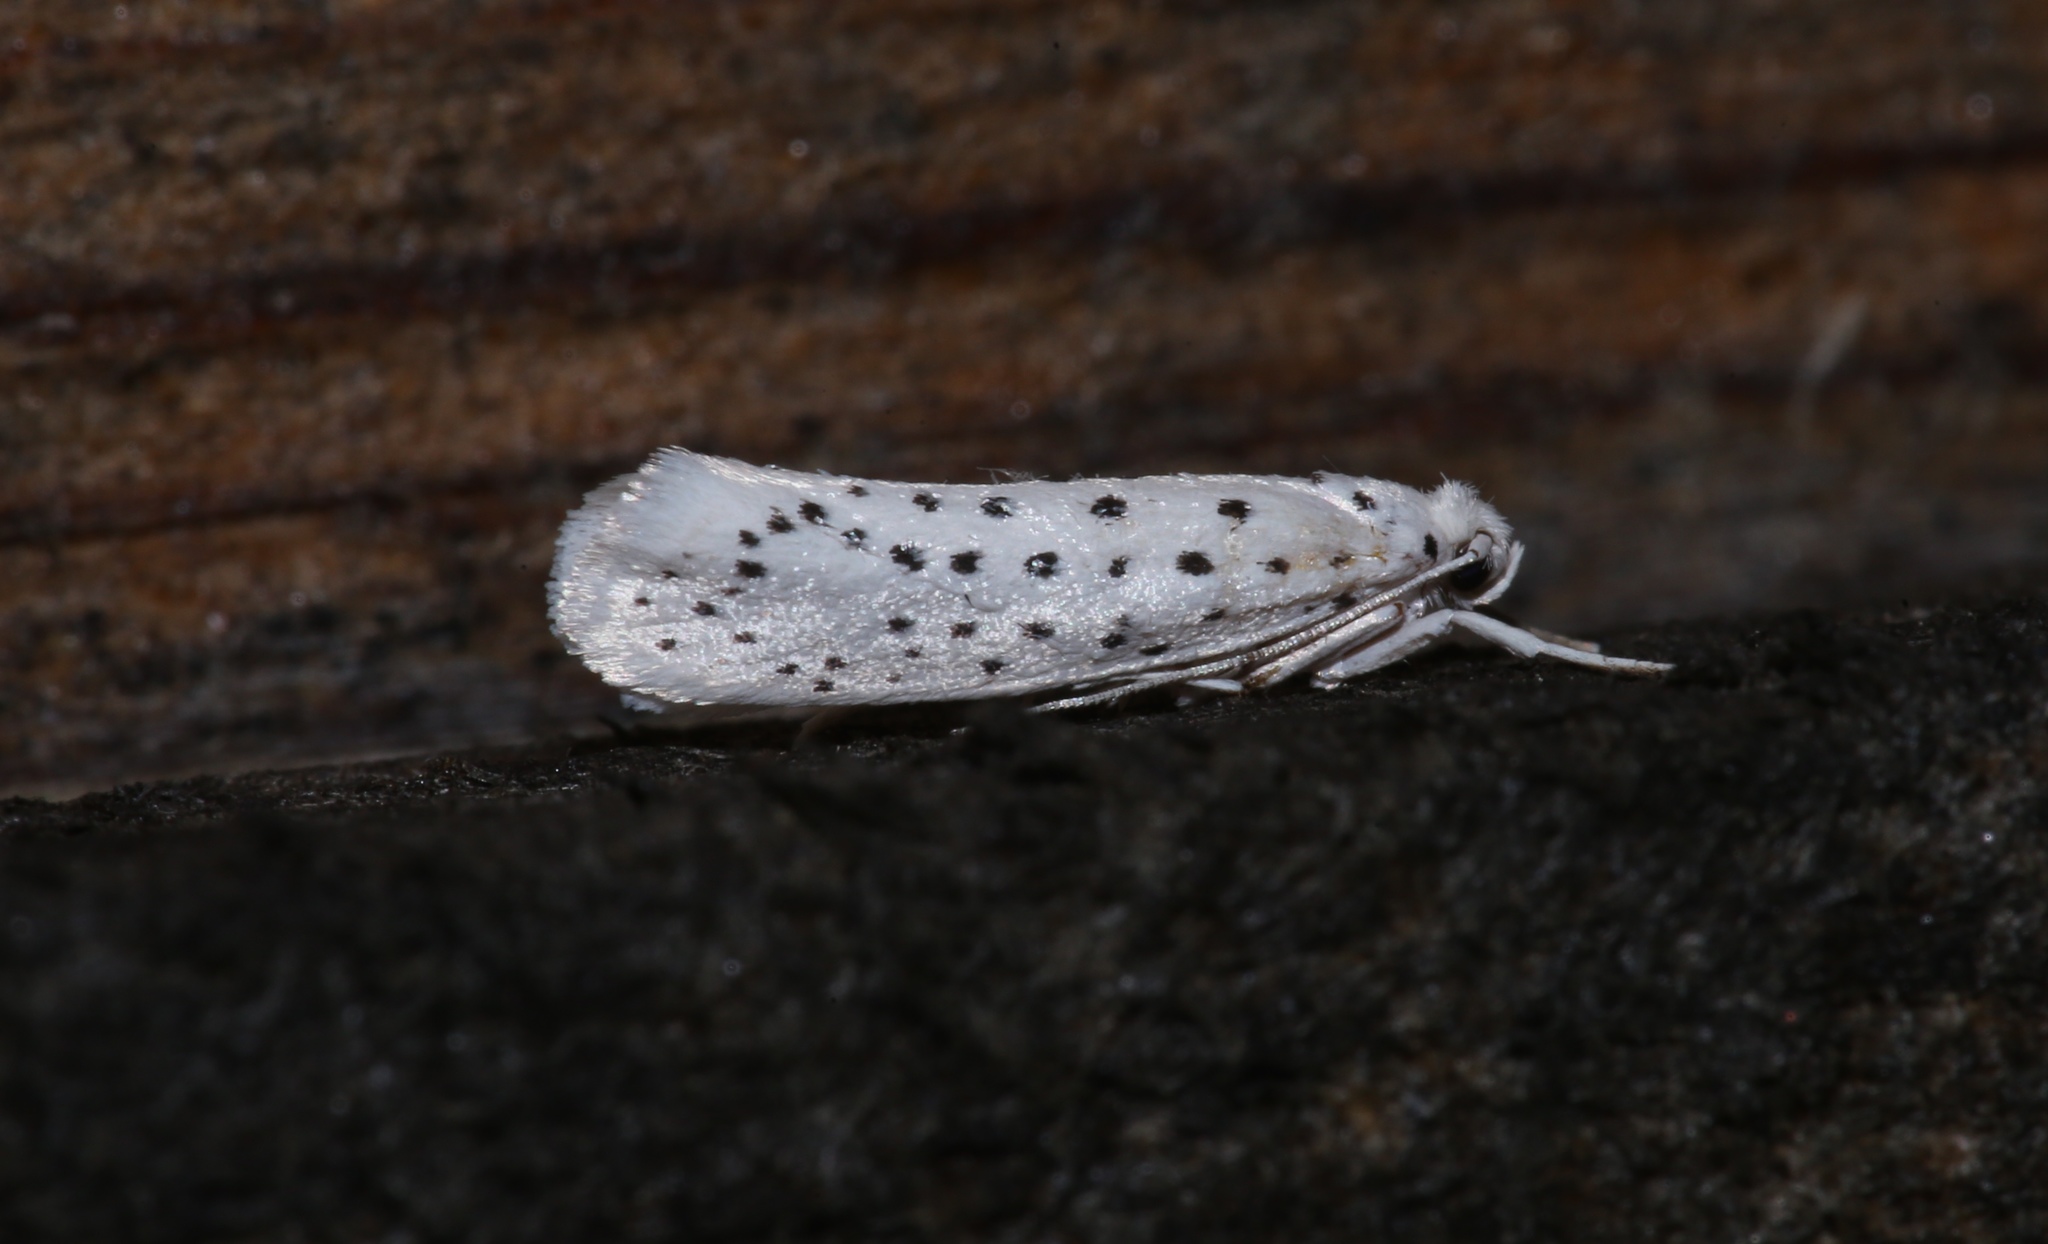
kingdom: Animalia
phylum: Arthropoda
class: Insecta
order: Lepidoptera
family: Yponomeutidae
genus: Yponomeuta
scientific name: Yponomeuta multipunctella
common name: American ermine moth
